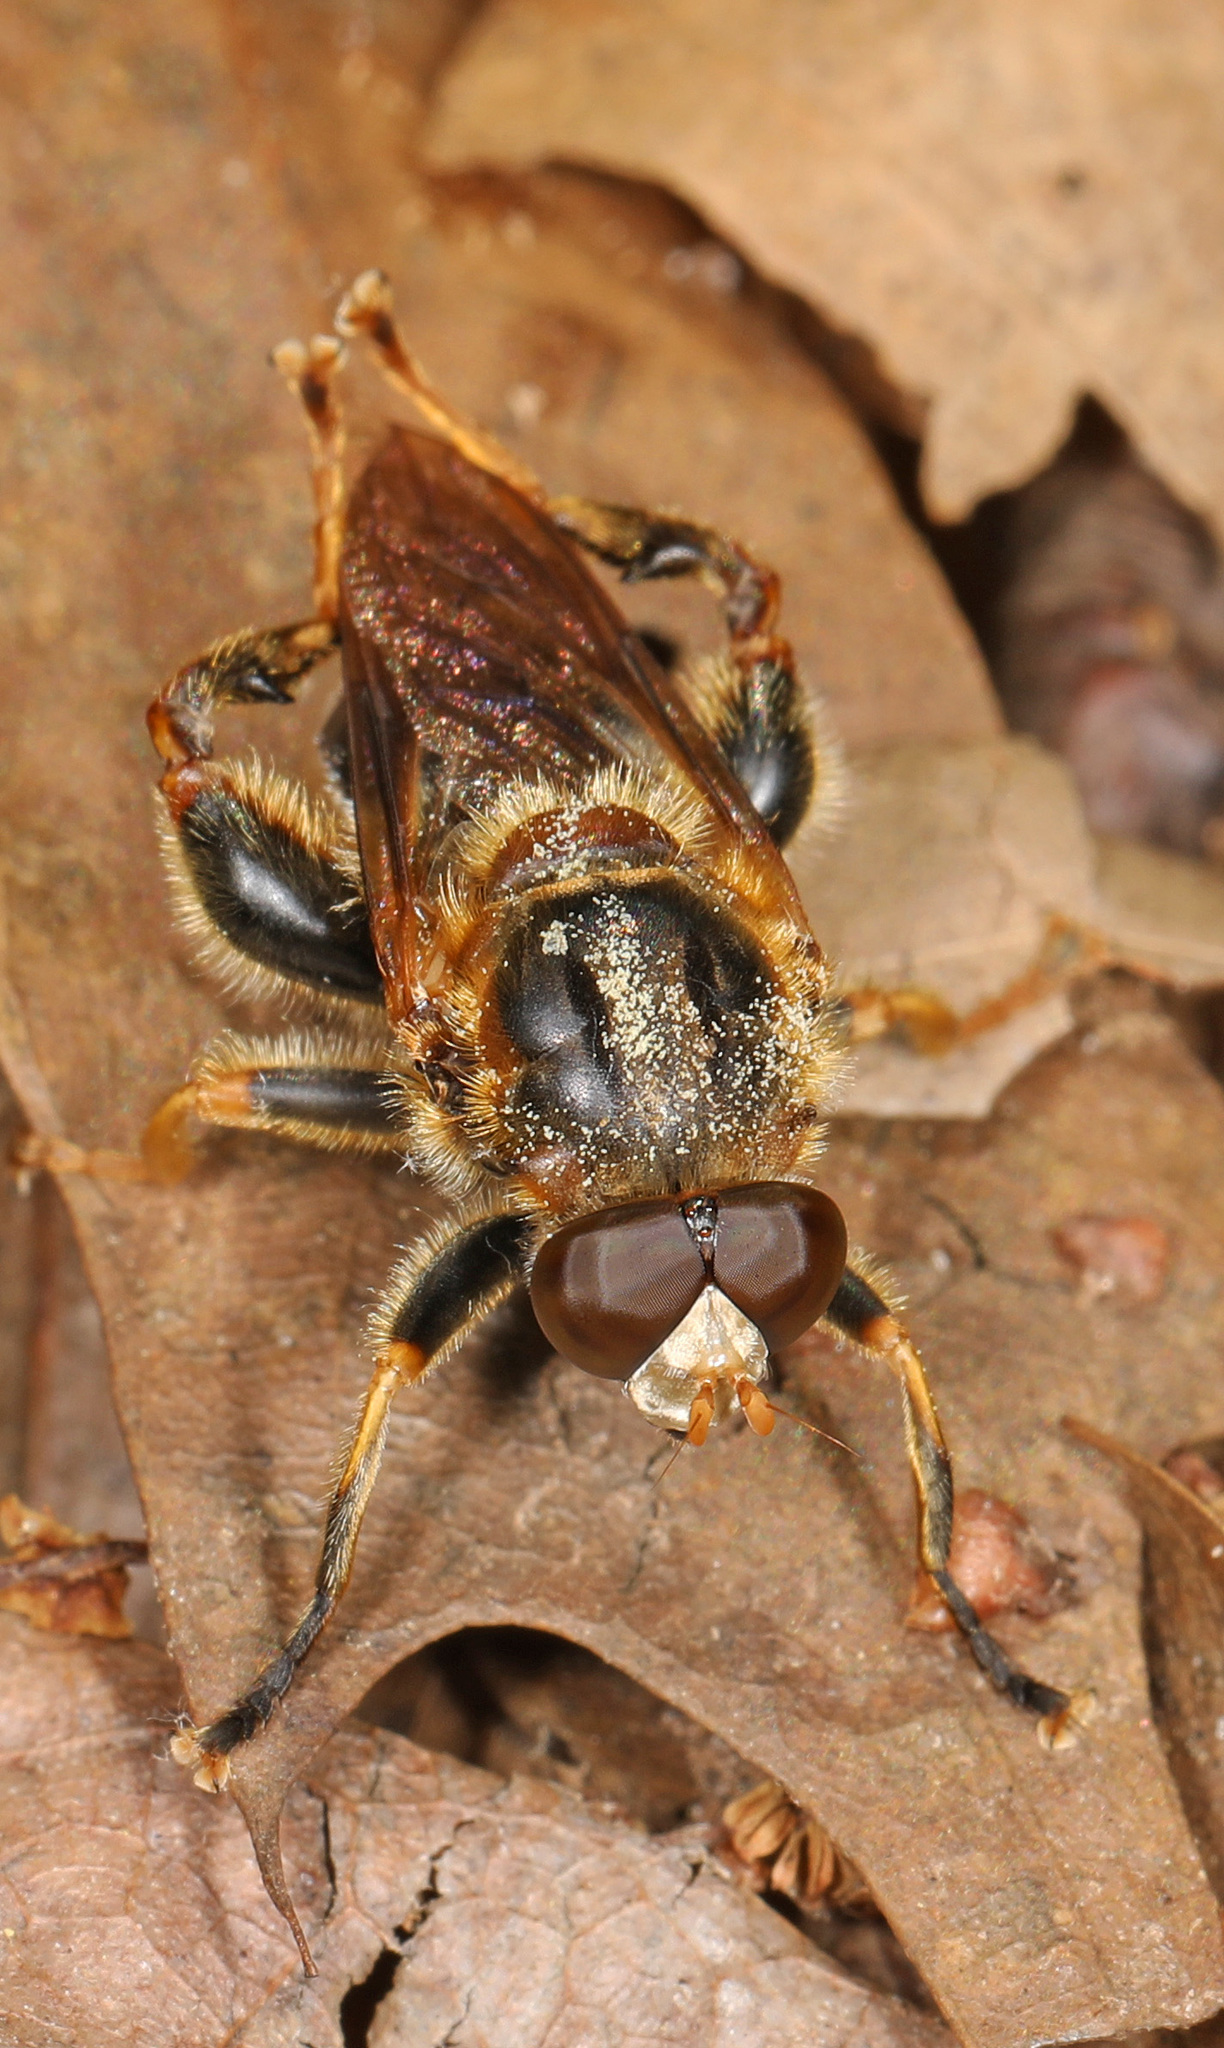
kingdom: Animalia
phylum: Arthropoda
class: Insecta
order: Diptera
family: Syrphidae
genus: Teuchocnemis
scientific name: Teuchocnemis lituratus
